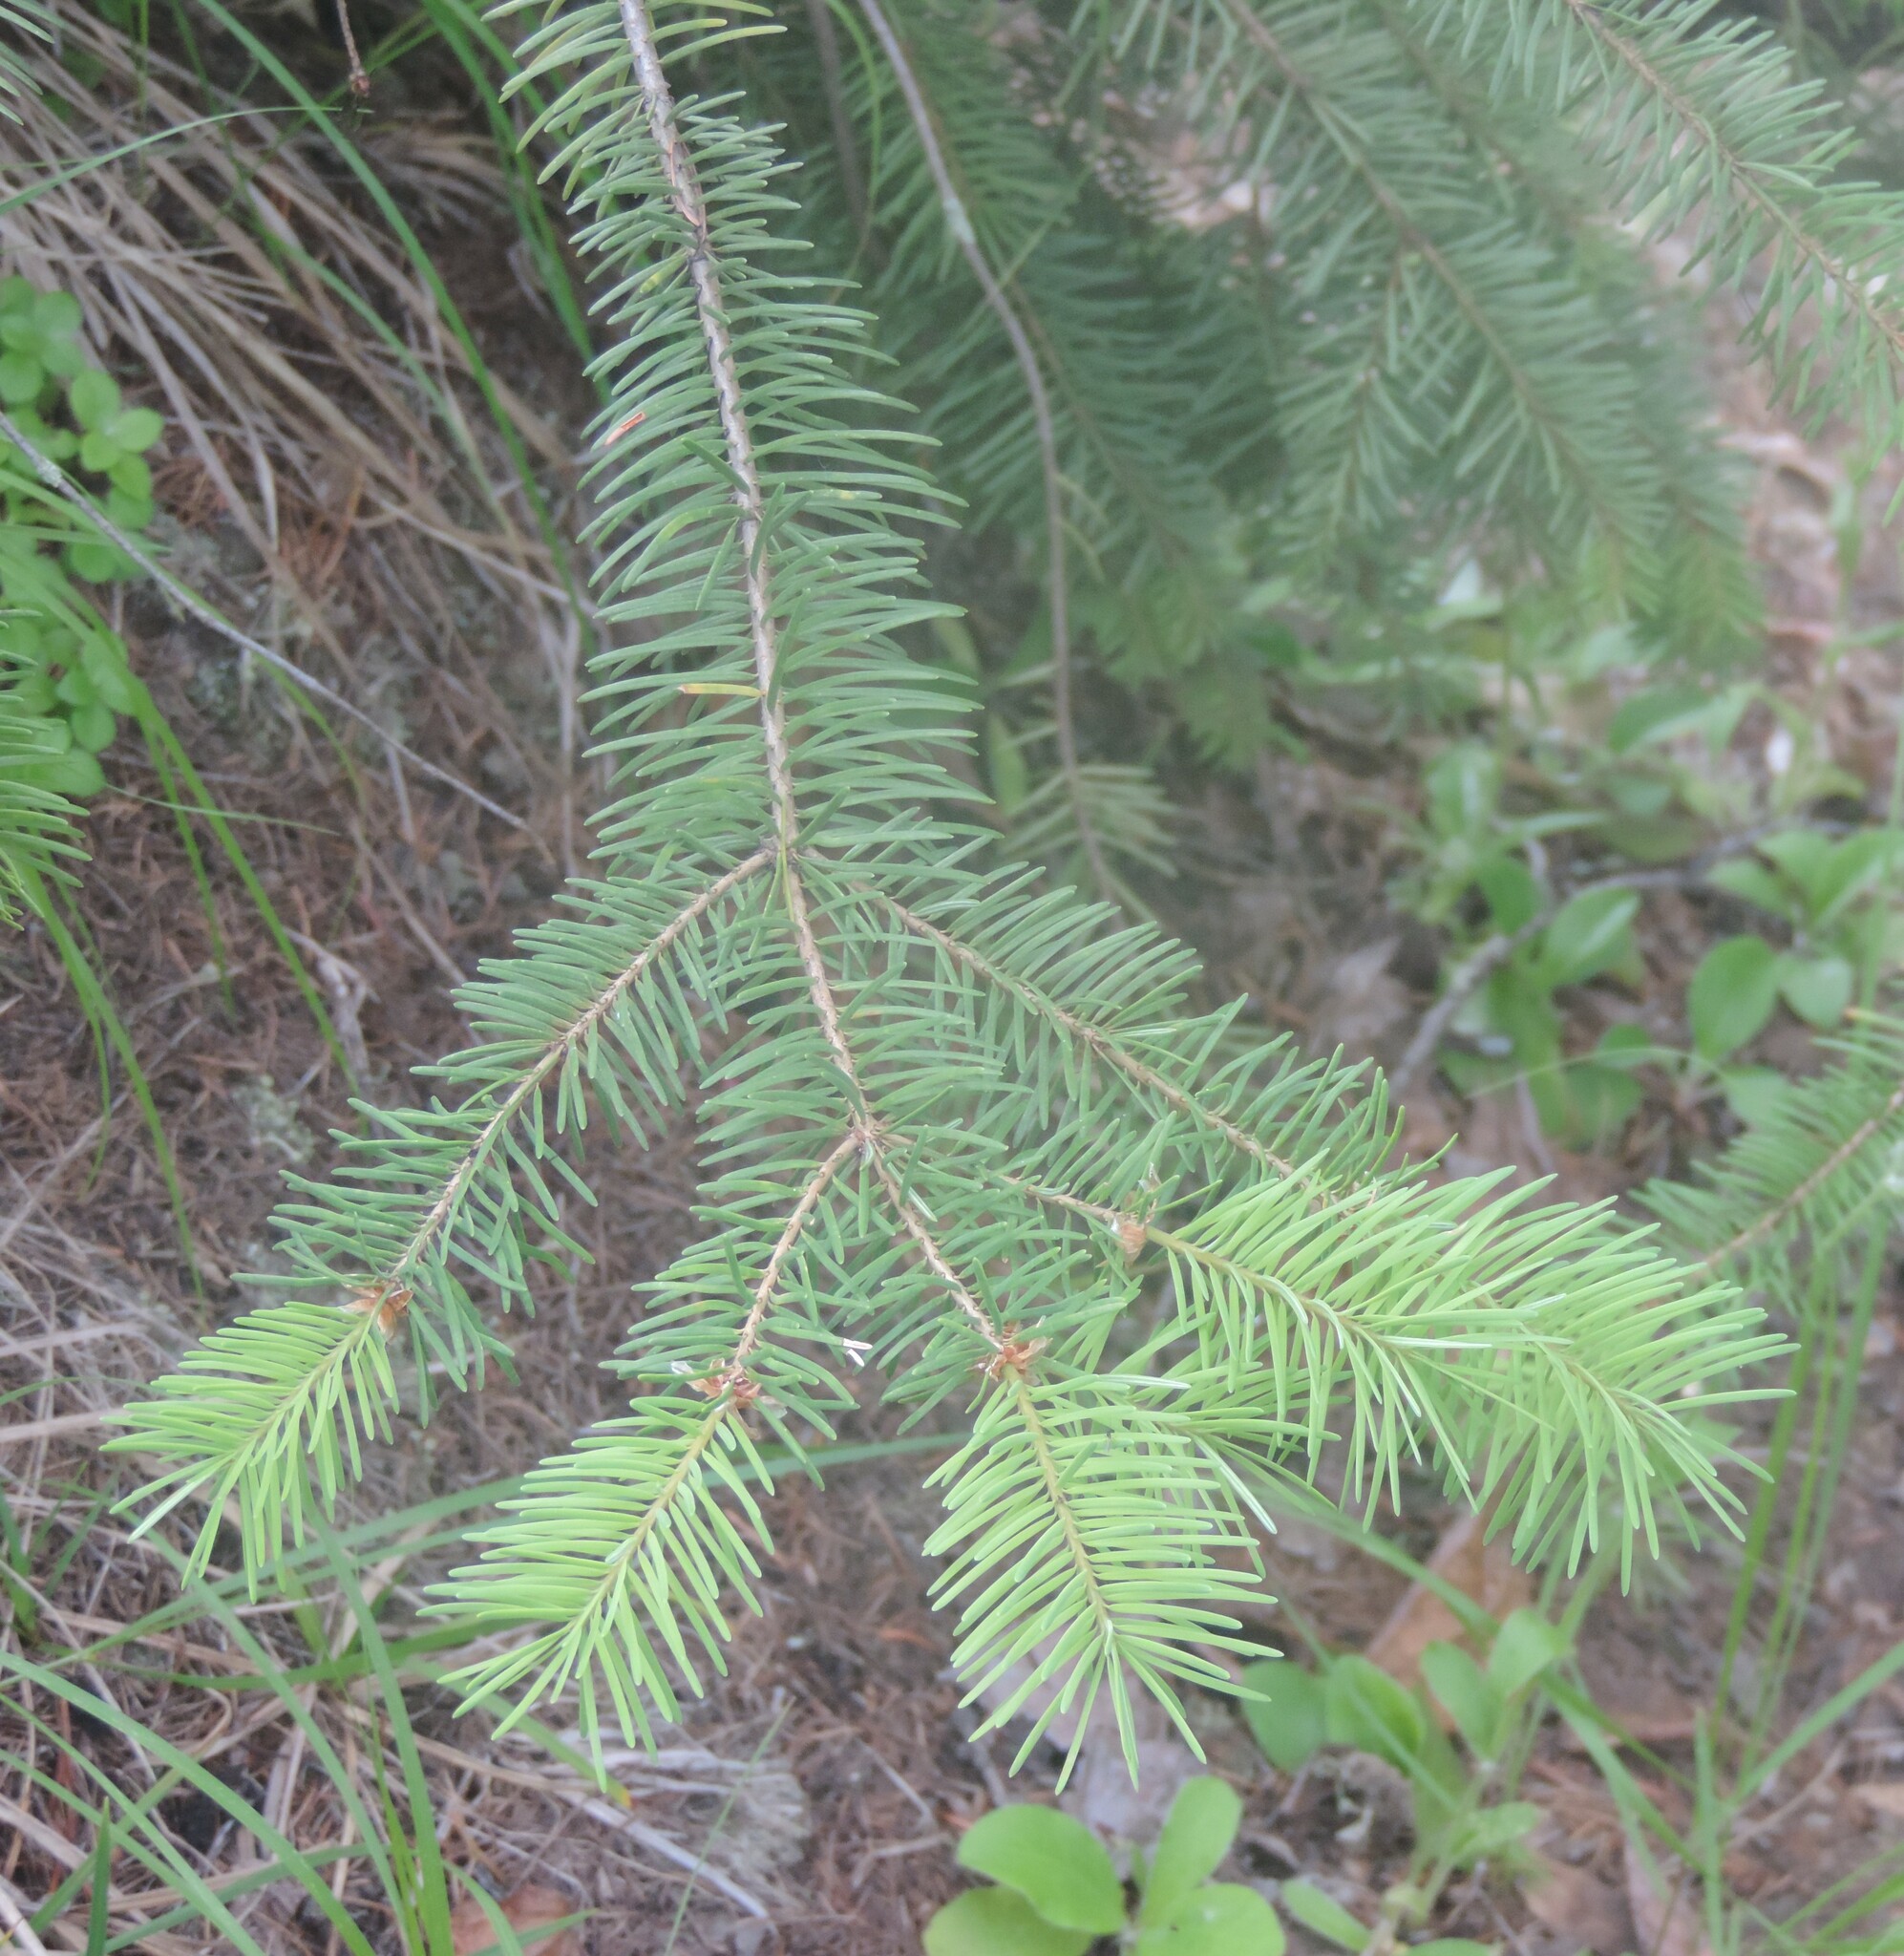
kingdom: Plantae
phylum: Tracheophyta
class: Pinopsida
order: Pinales
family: Pinaceae
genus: Pseudotsuga
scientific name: Pseudotsuga menziesii
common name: Douglas fir
